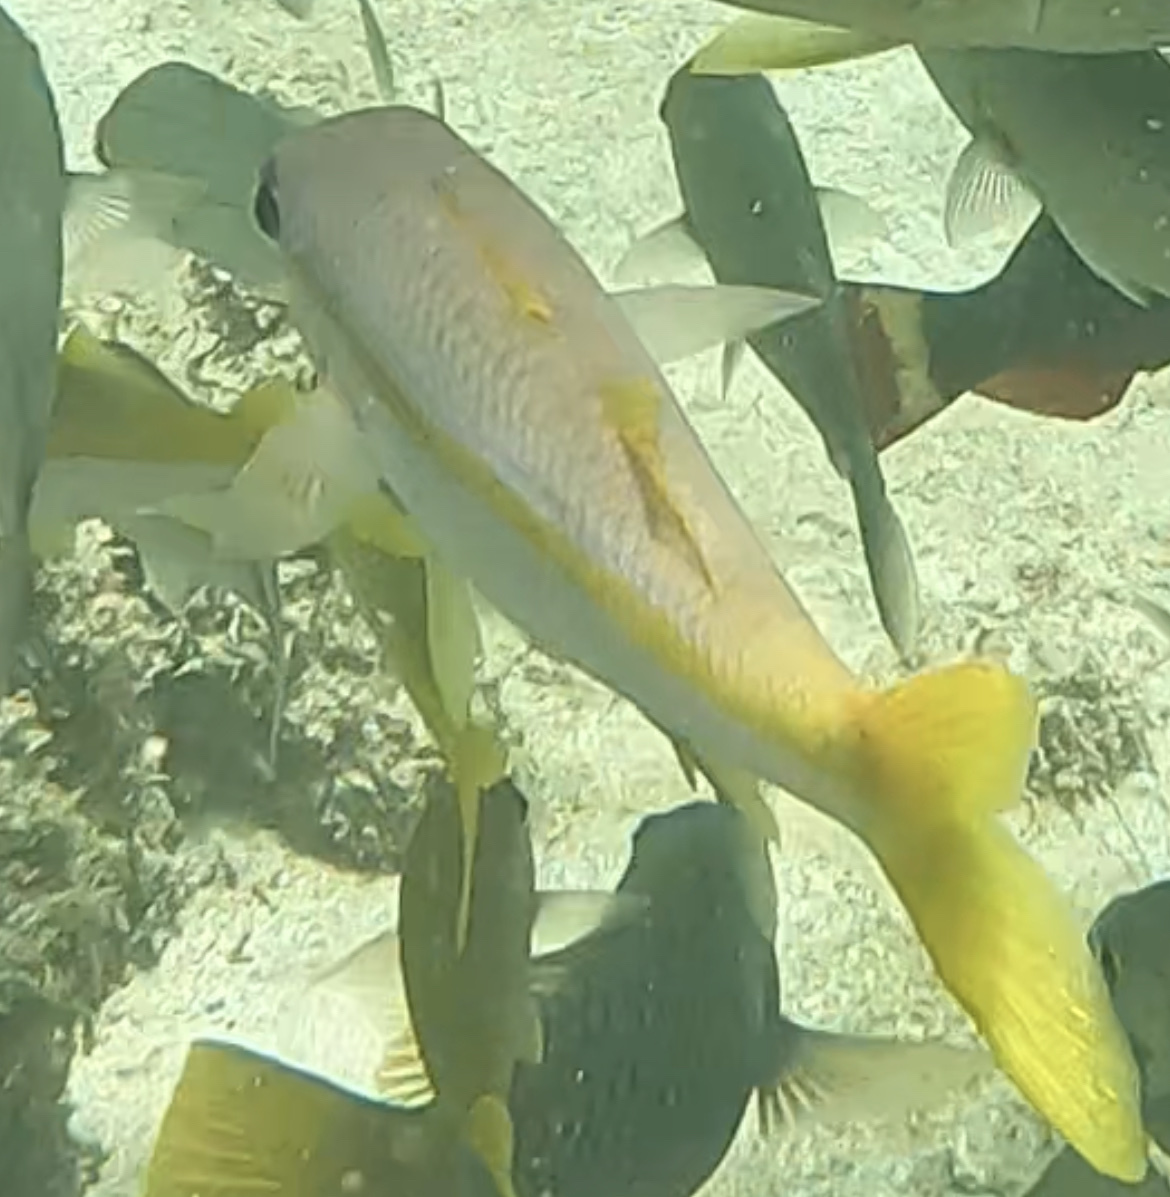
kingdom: Animalia
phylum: Chordata
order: Perciformes
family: Mullidae
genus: Mulloidichthys
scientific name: Mulloidichthys martinicus
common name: Yellow goatfish
